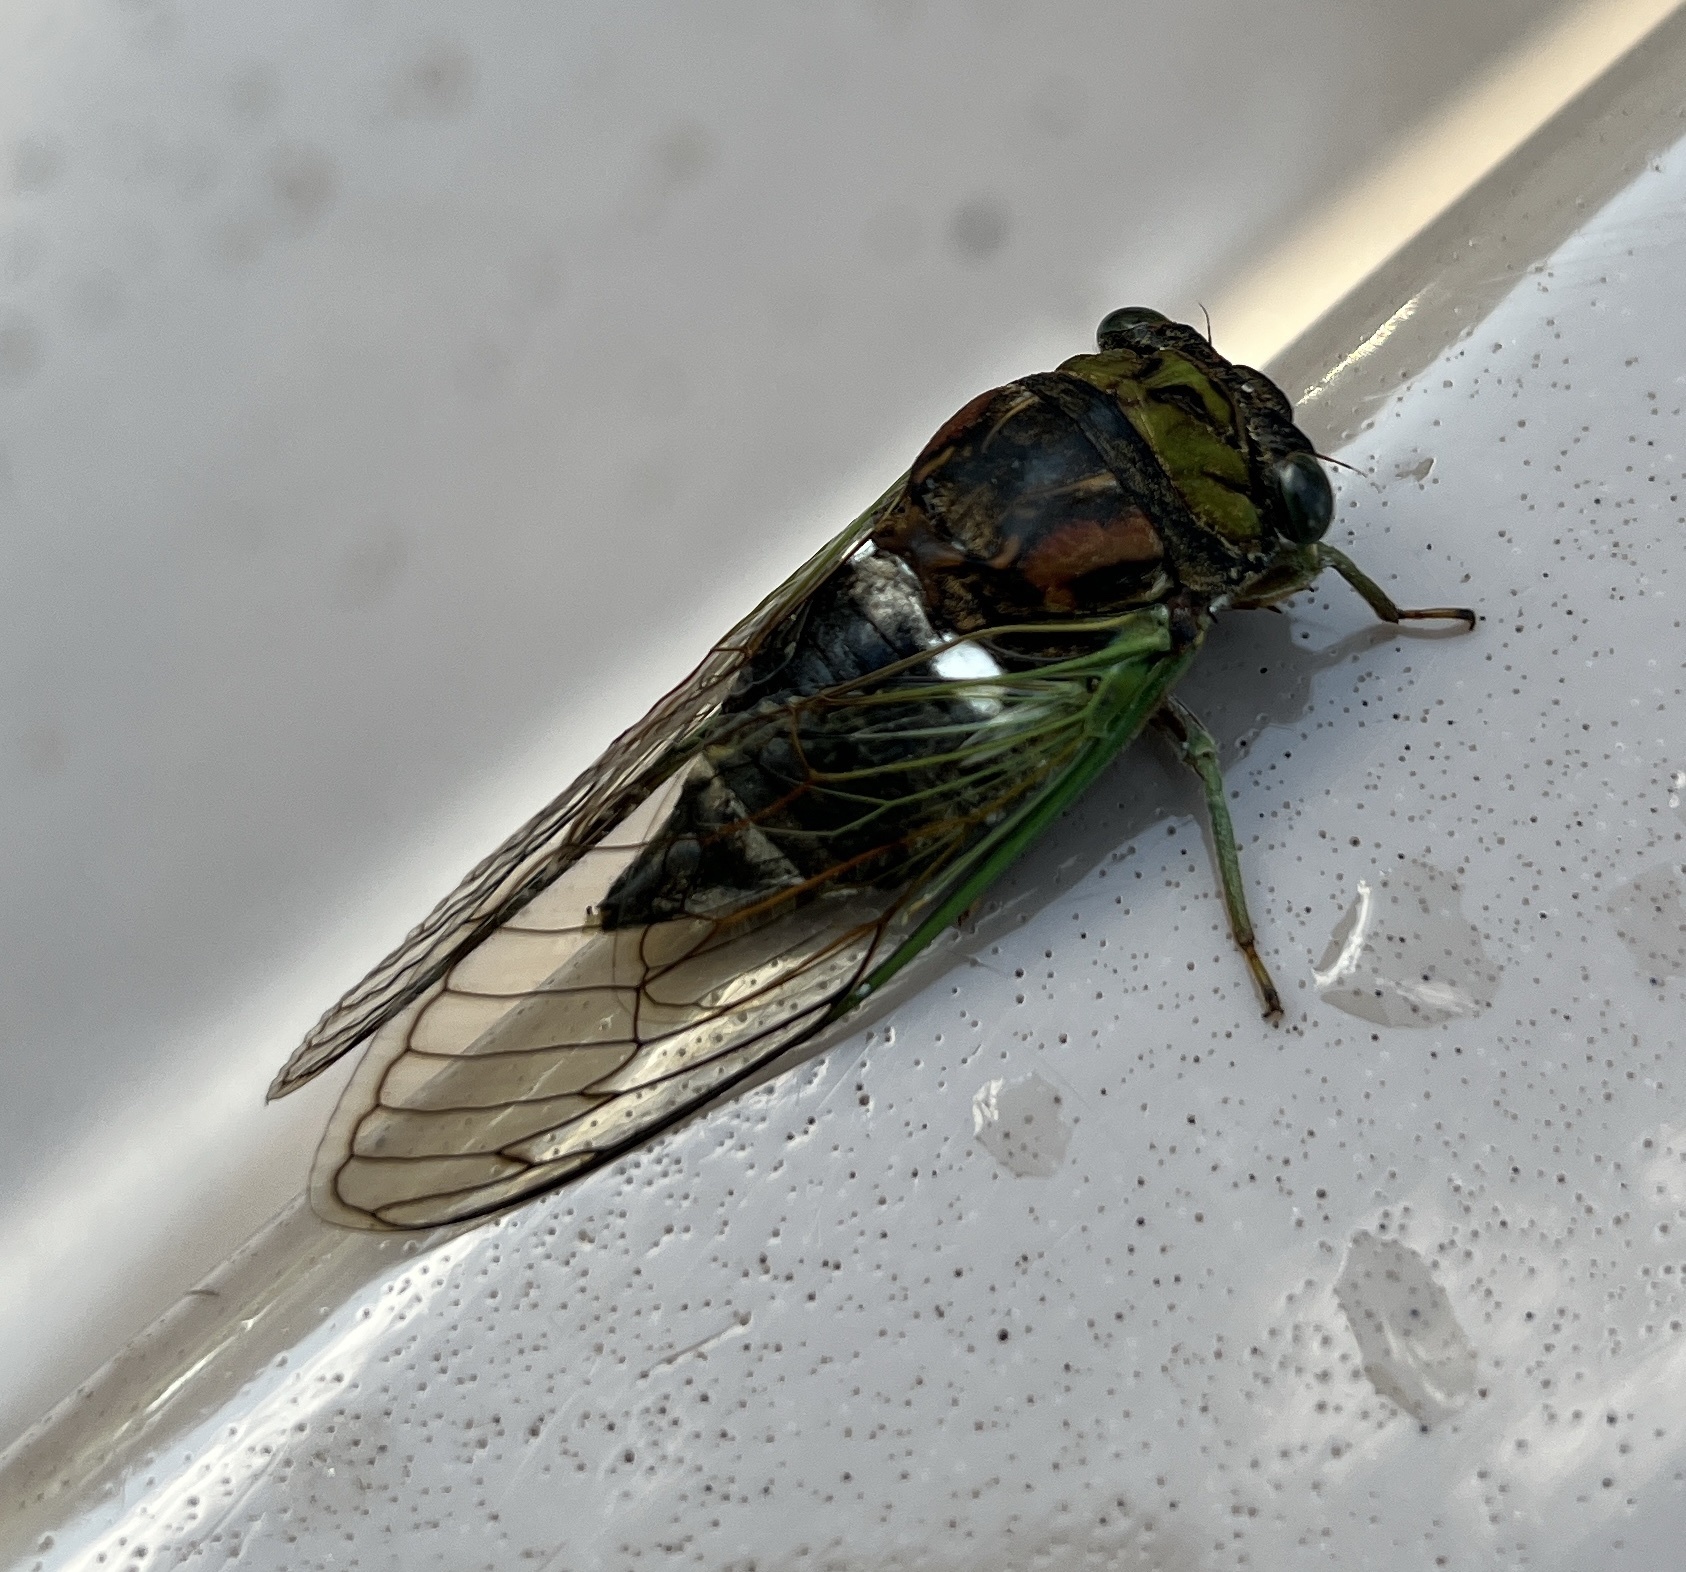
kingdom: Animalia
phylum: Arthropoda
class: Insecta
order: Hemiptera
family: Cicadidae
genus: Neotibicen
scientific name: Neotibicen tibicen
